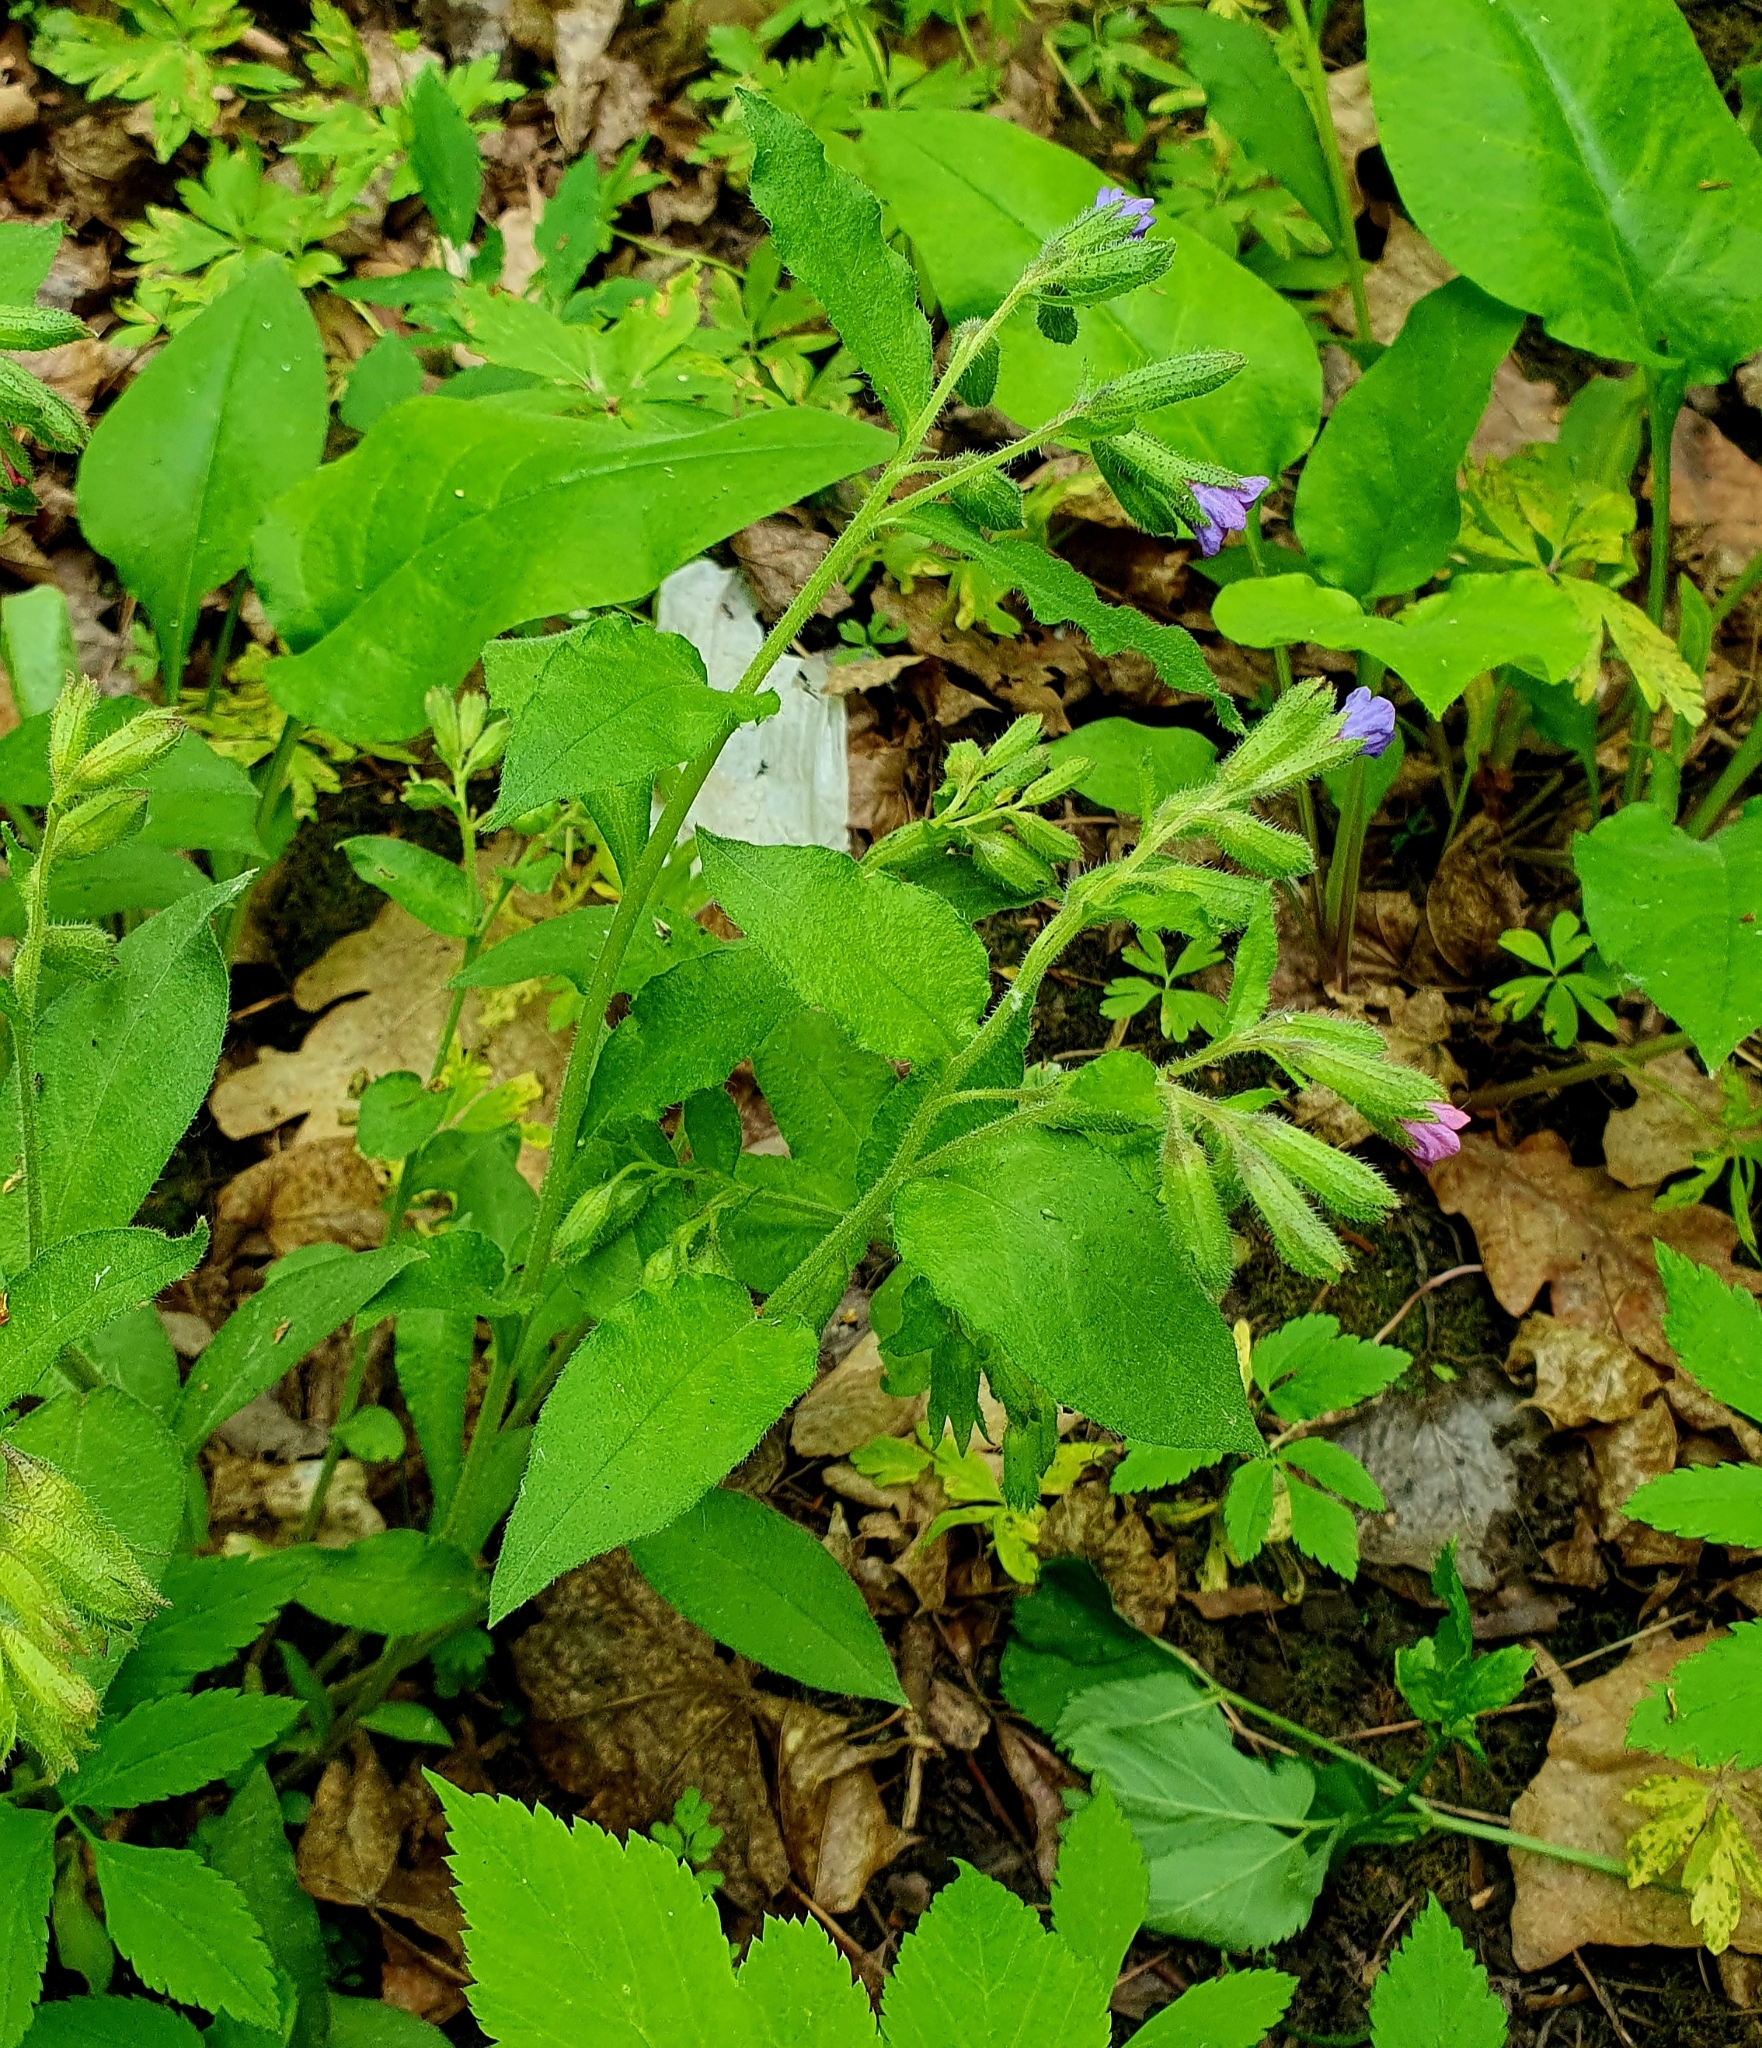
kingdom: Plantae
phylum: Tracheophyta
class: Magnoliopsida
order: Boraginales
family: Boraginaceae
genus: Pulmonaria
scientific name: Pulmonaria obscura
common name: Suffolk lungwort
